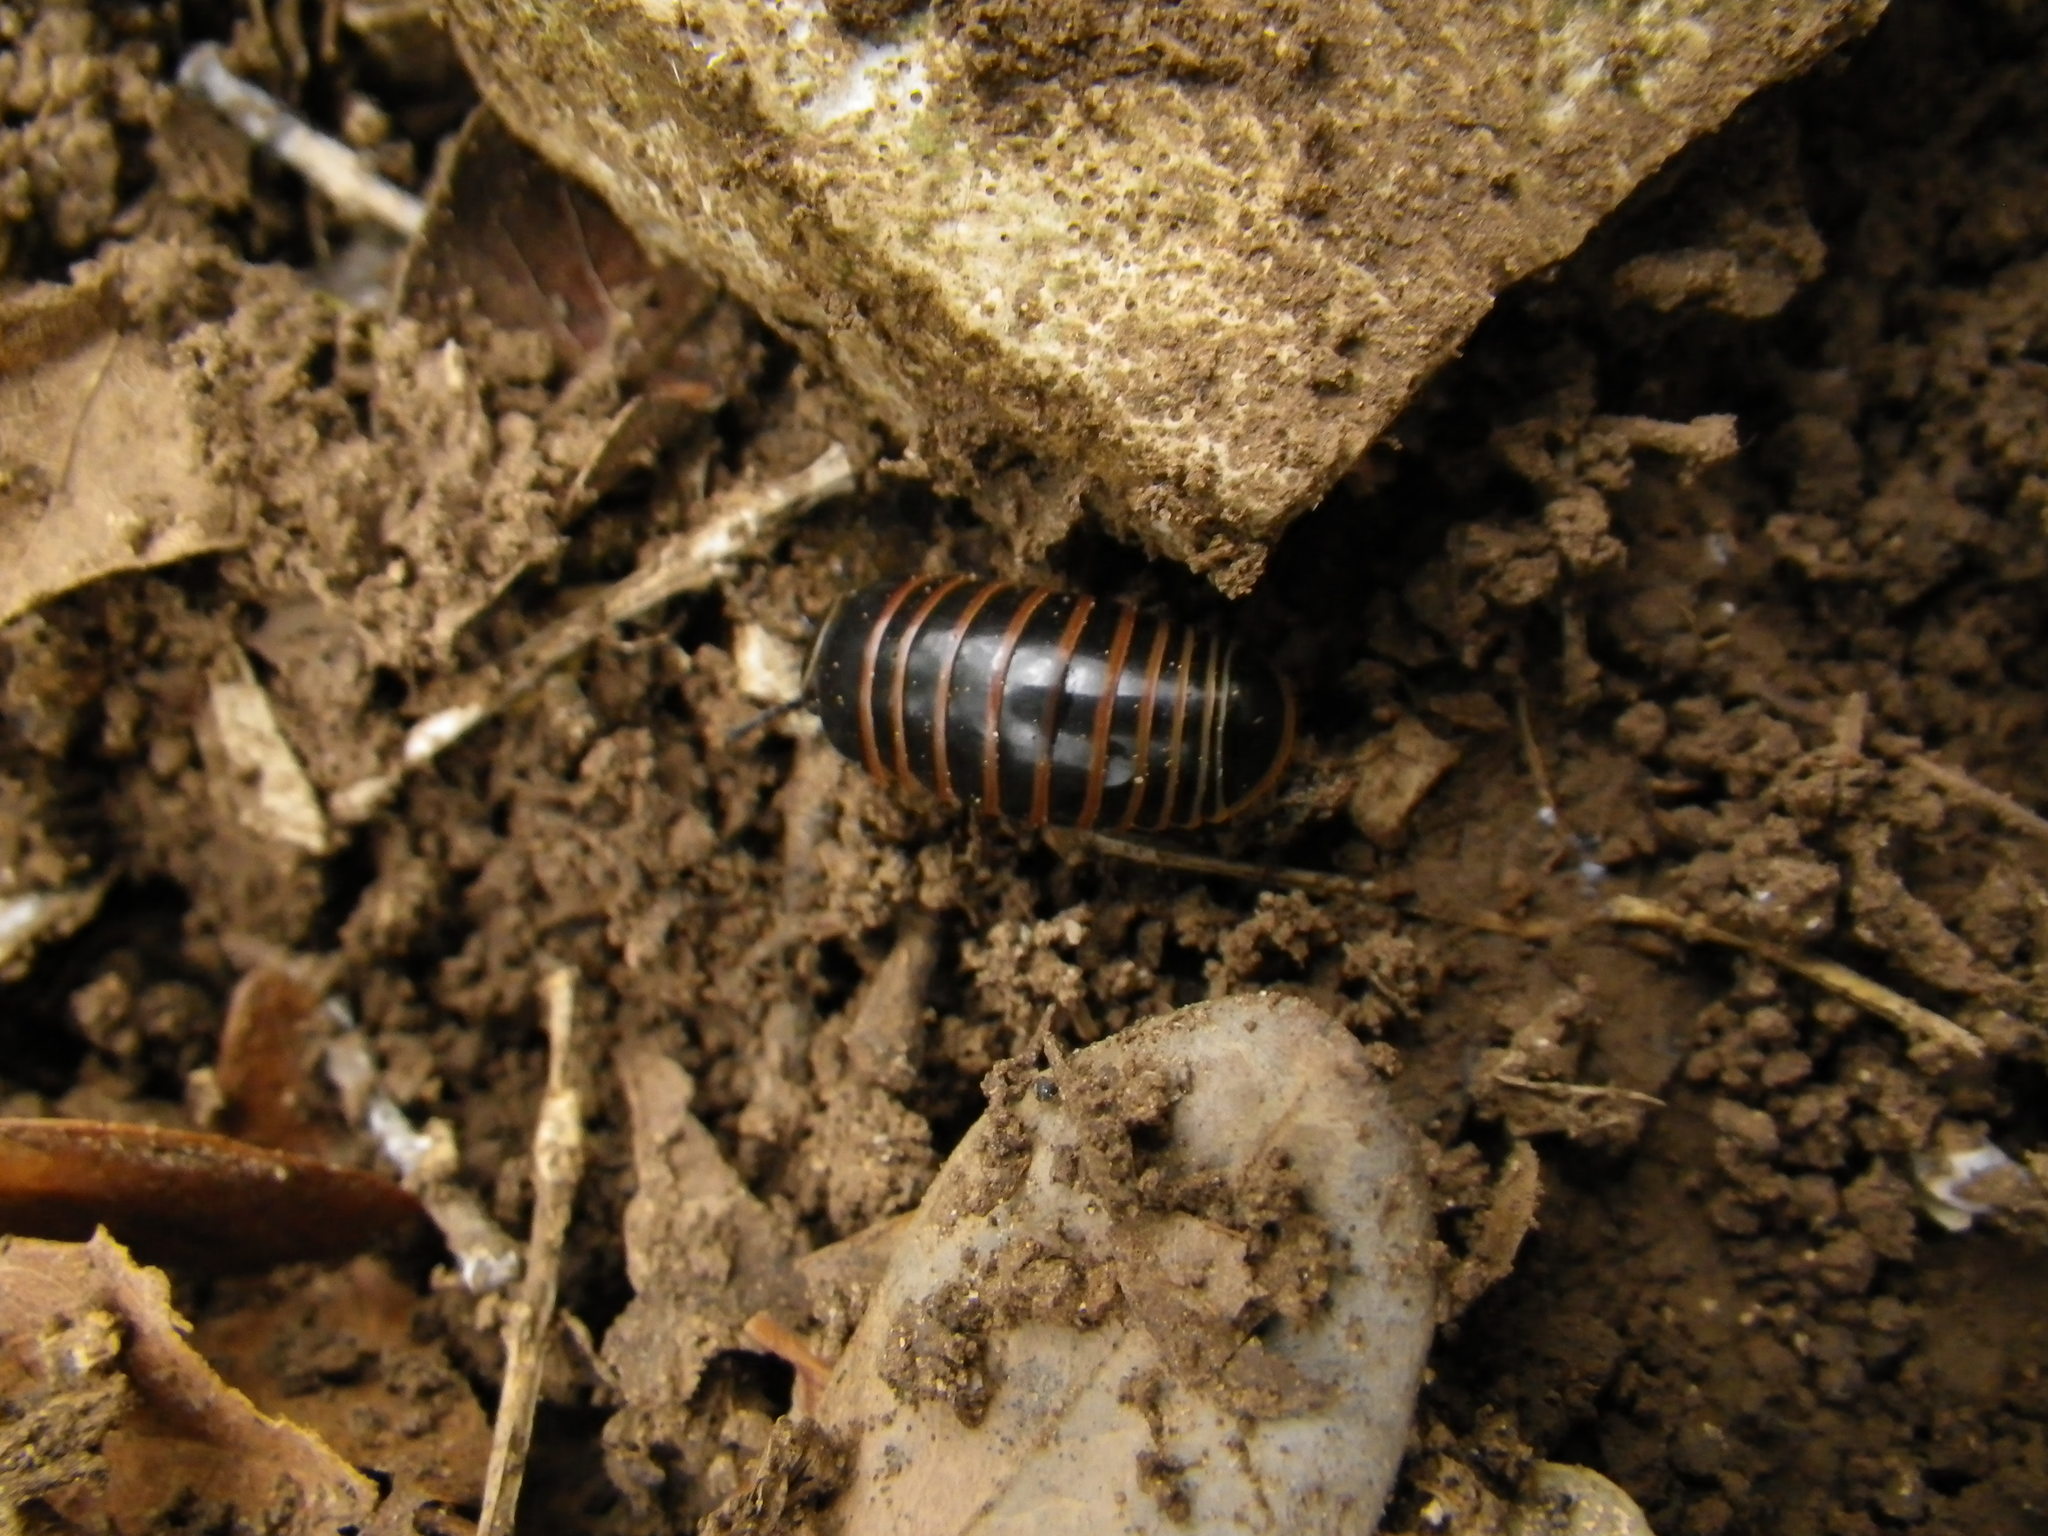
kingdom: Animalia
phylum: Arthropoda
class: Diplopoda
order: Glomerida
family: Glomeridae
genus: Glomeris
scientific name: Glomeris marginata
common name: Bordered pill millipede
